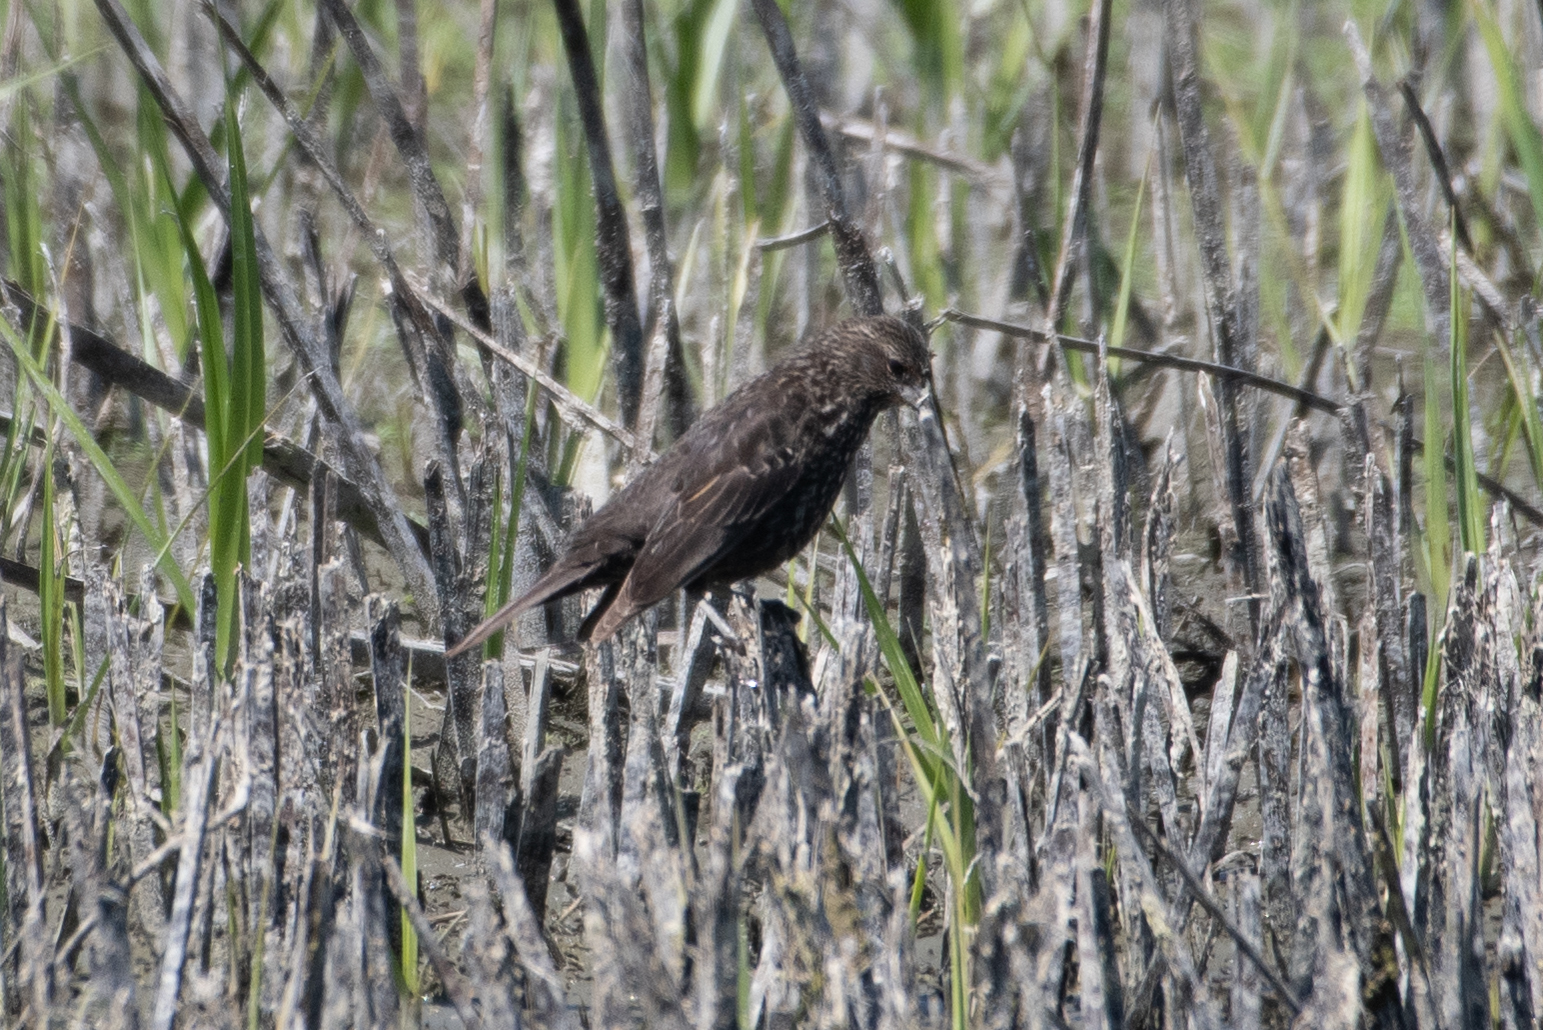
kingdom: Animalia
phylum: Chordata
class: Aves
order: Passeriformes
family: Icteridae
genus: Agelaius
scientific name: Agelaius phoeniceus
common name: Red-winged blackbird
